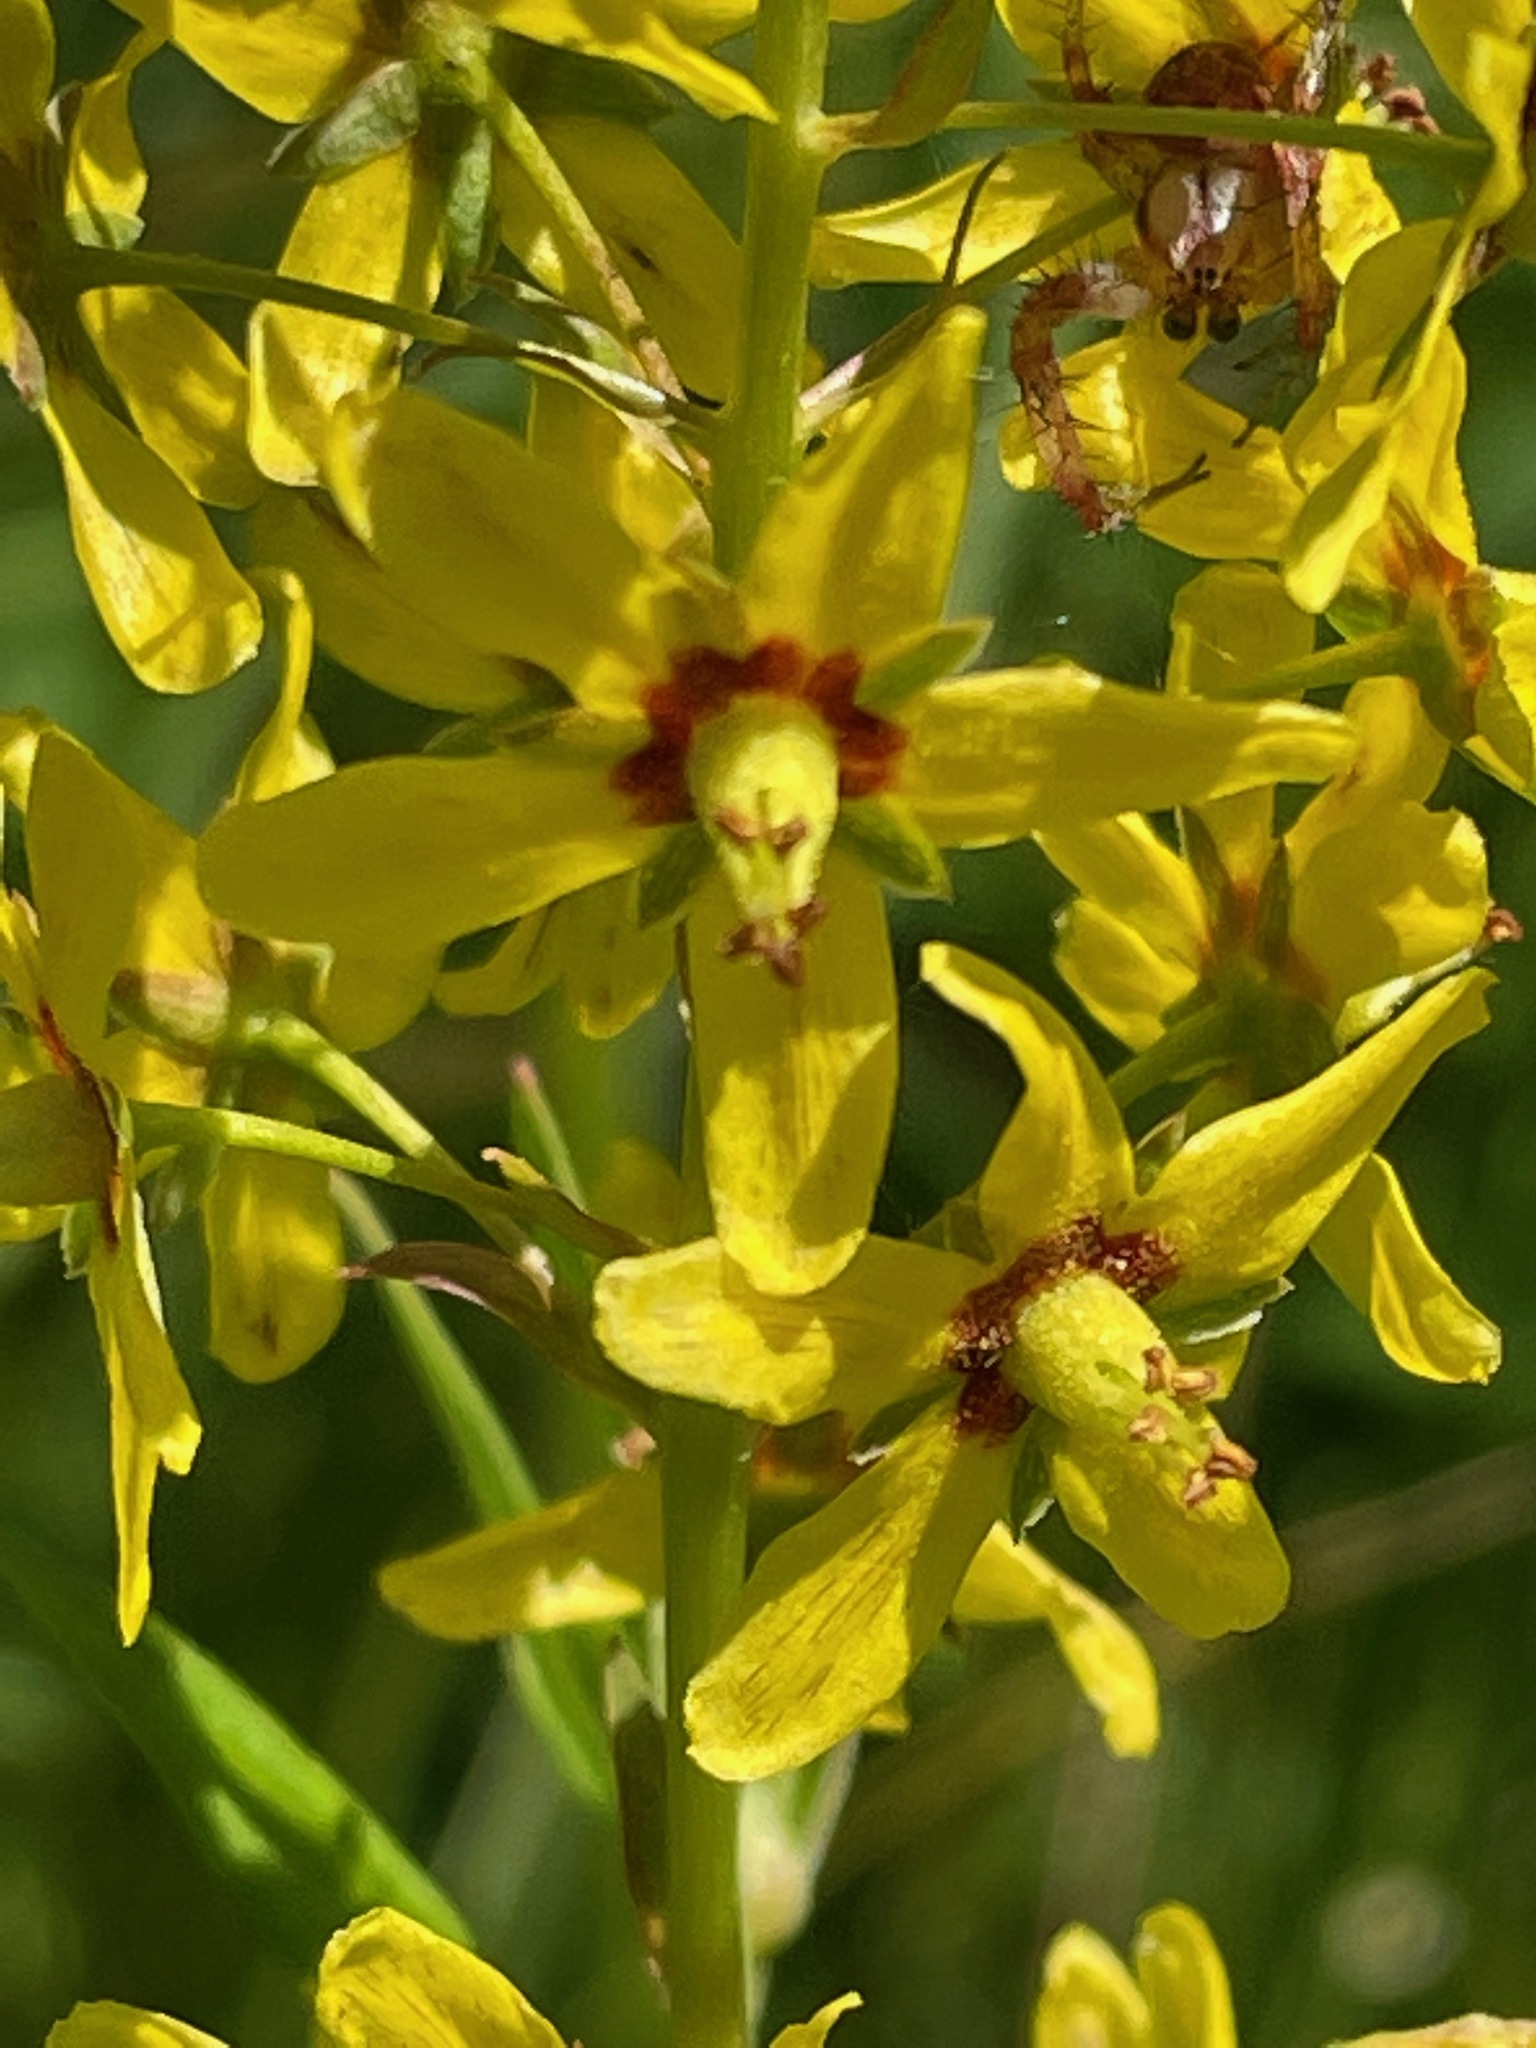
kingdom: Plantae
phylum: Tracheophyta
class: Magnoliopsida
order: Ericales
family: Primulaceae
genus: Lysimachia
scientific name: Lysimachia terrestris
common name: Lake loosestrife
